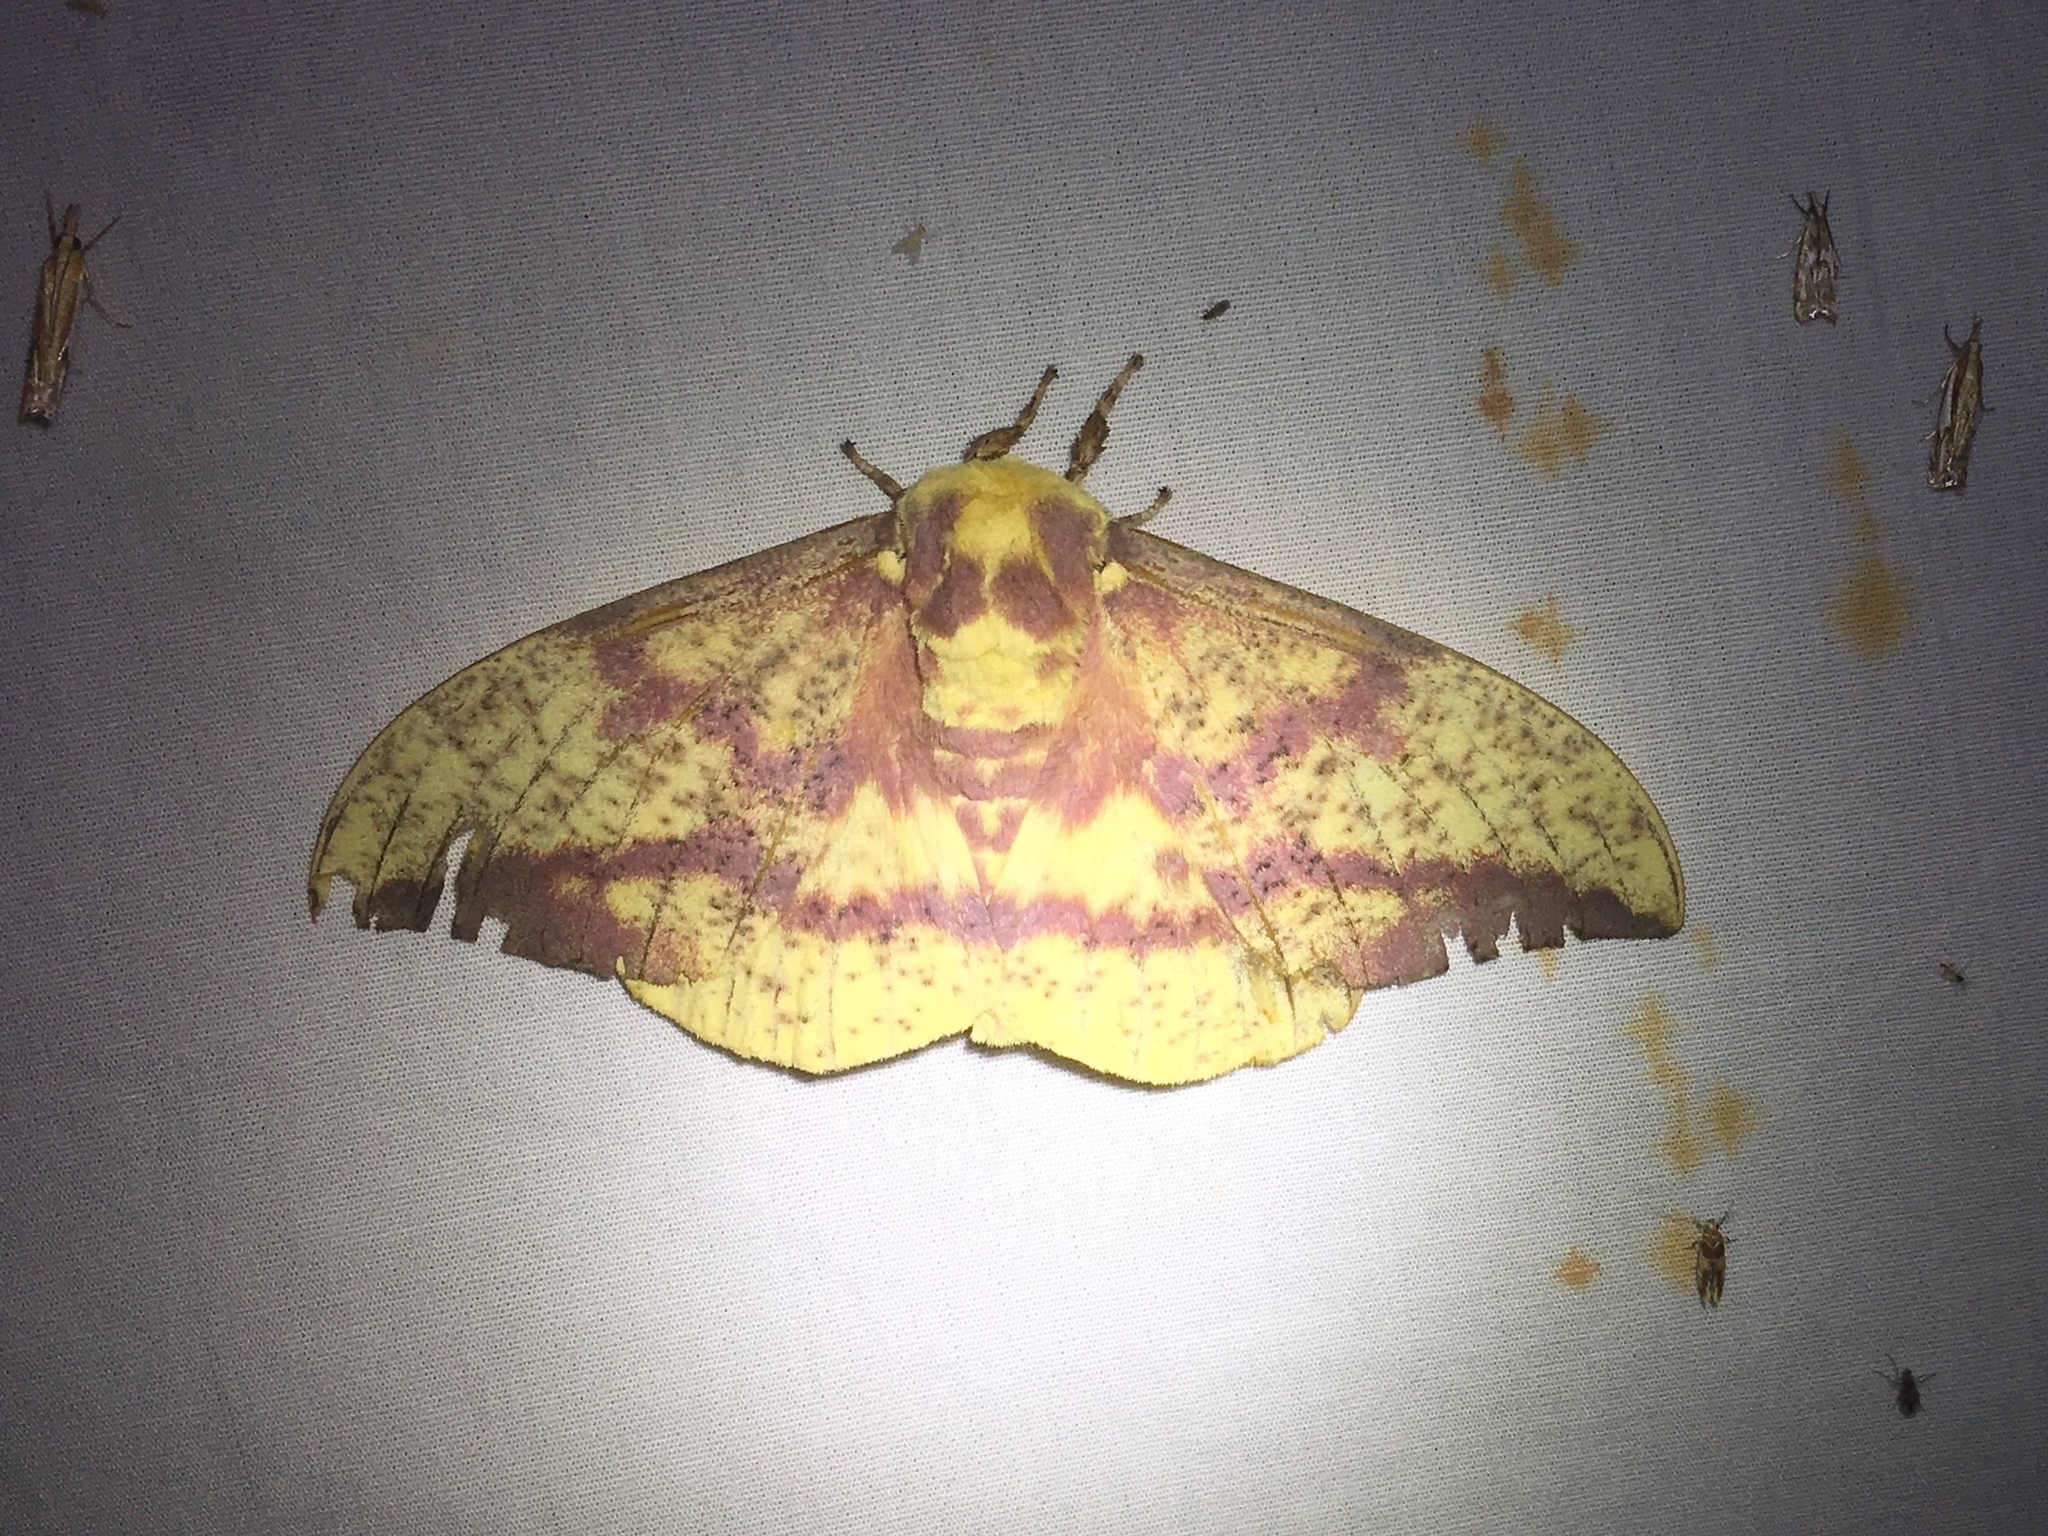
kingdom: Animalia
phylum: Arthropoda
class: Insecta
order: Lepidoptera
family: Saturniidae
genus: Eacles
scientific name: Eacles
